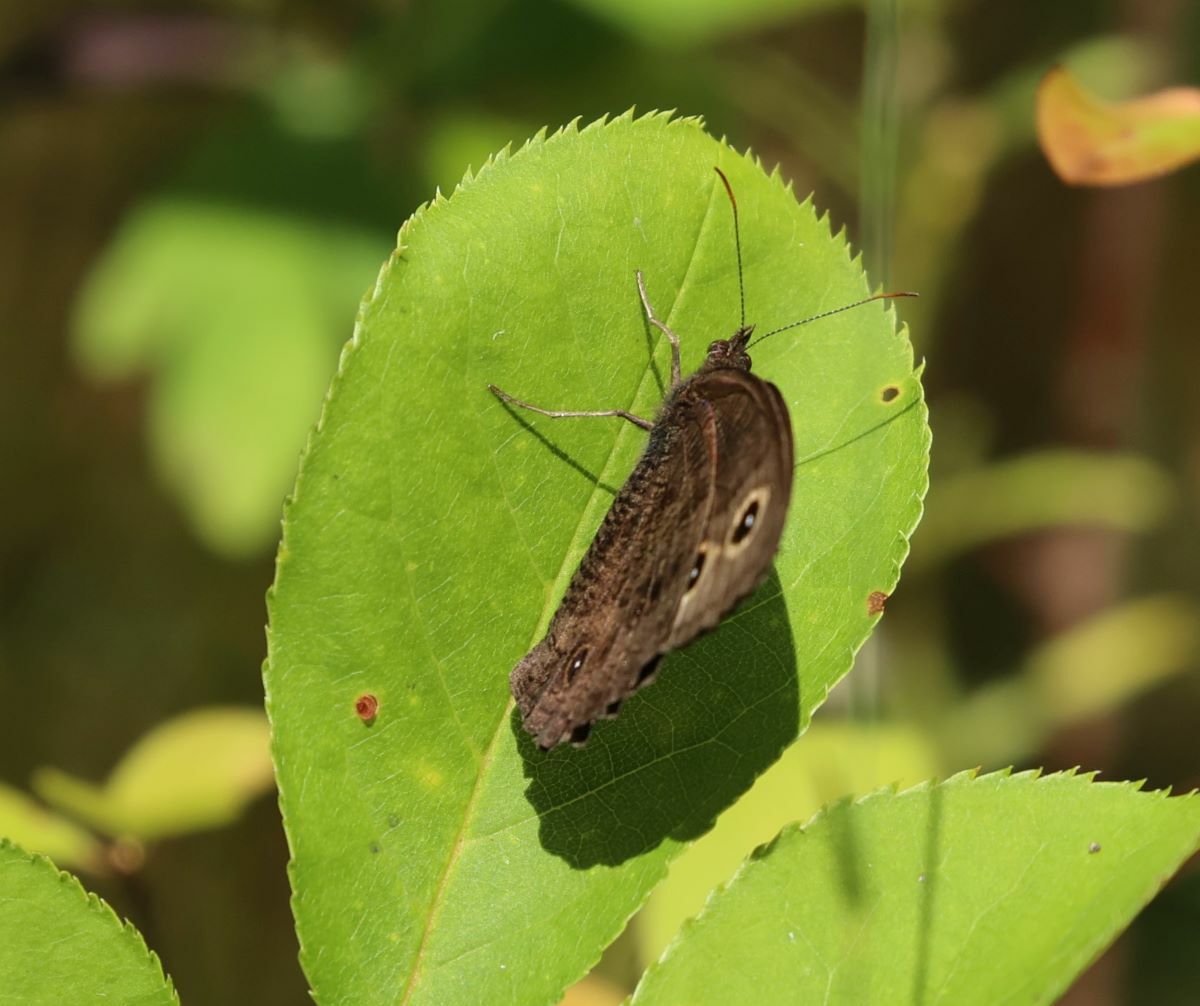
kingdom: Animalia
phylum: Arthropoda
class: Insecta
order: Lepidoptera
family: Nymphalidae
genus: Cercyonis
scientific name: Cercyonis pegala
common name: Common wood-nymph
